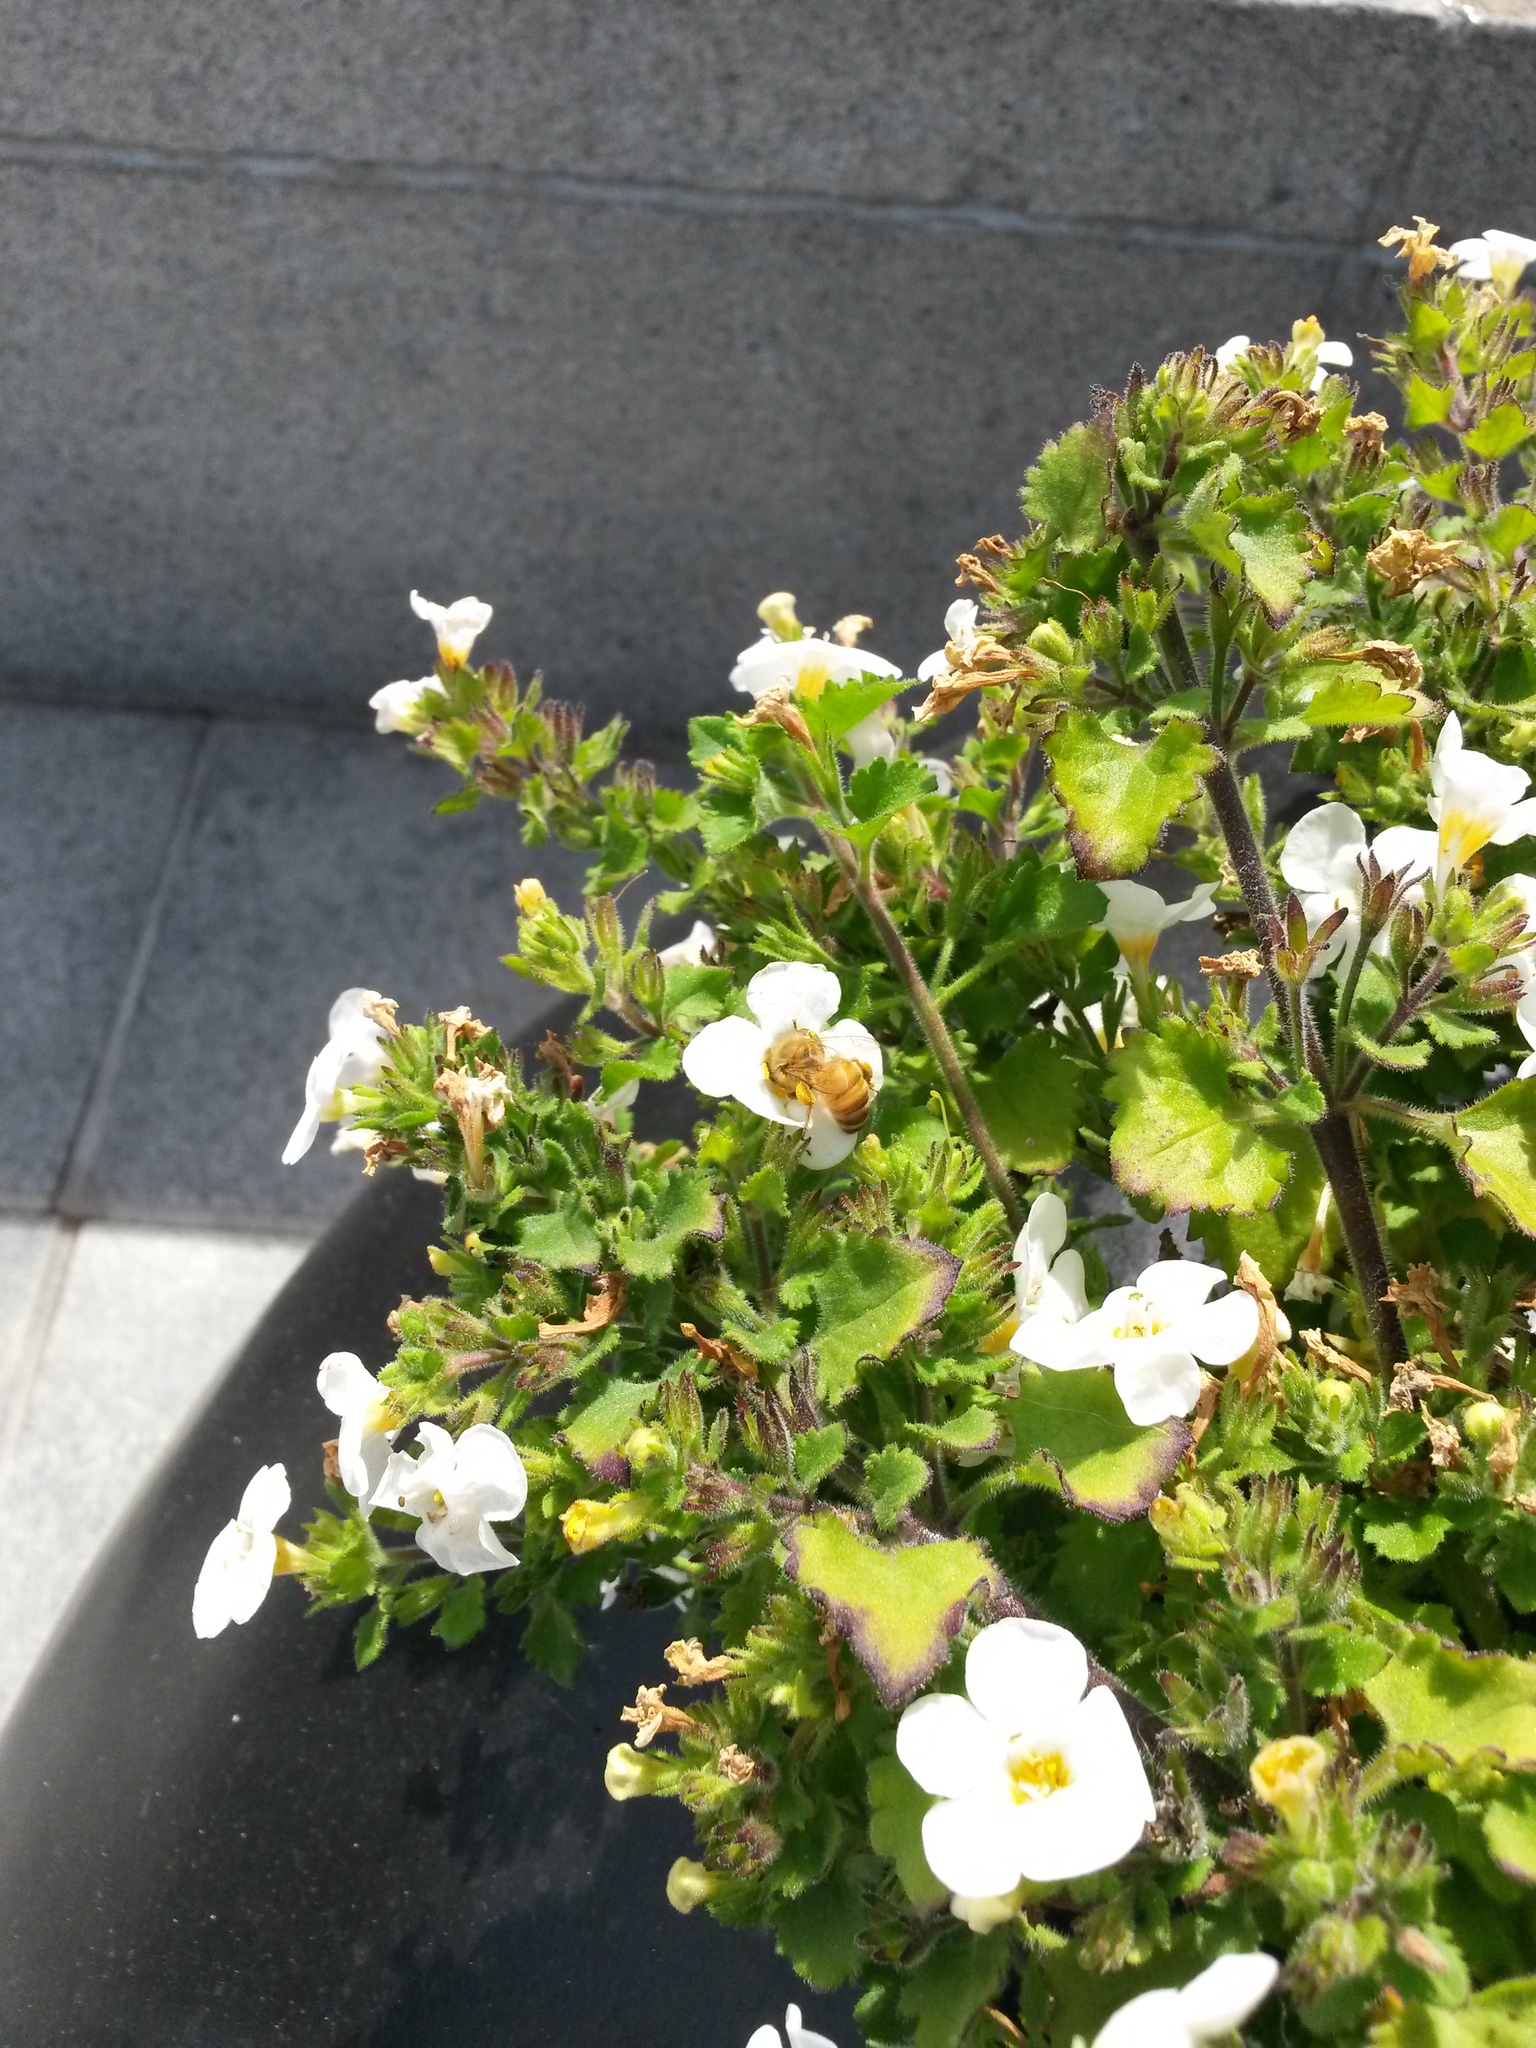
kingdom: Animalia
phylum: Arthropoda
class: Insecta
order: Hymenoptera
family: Apidae
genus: Apis
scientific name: Apis mellifera
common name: Honey bee
